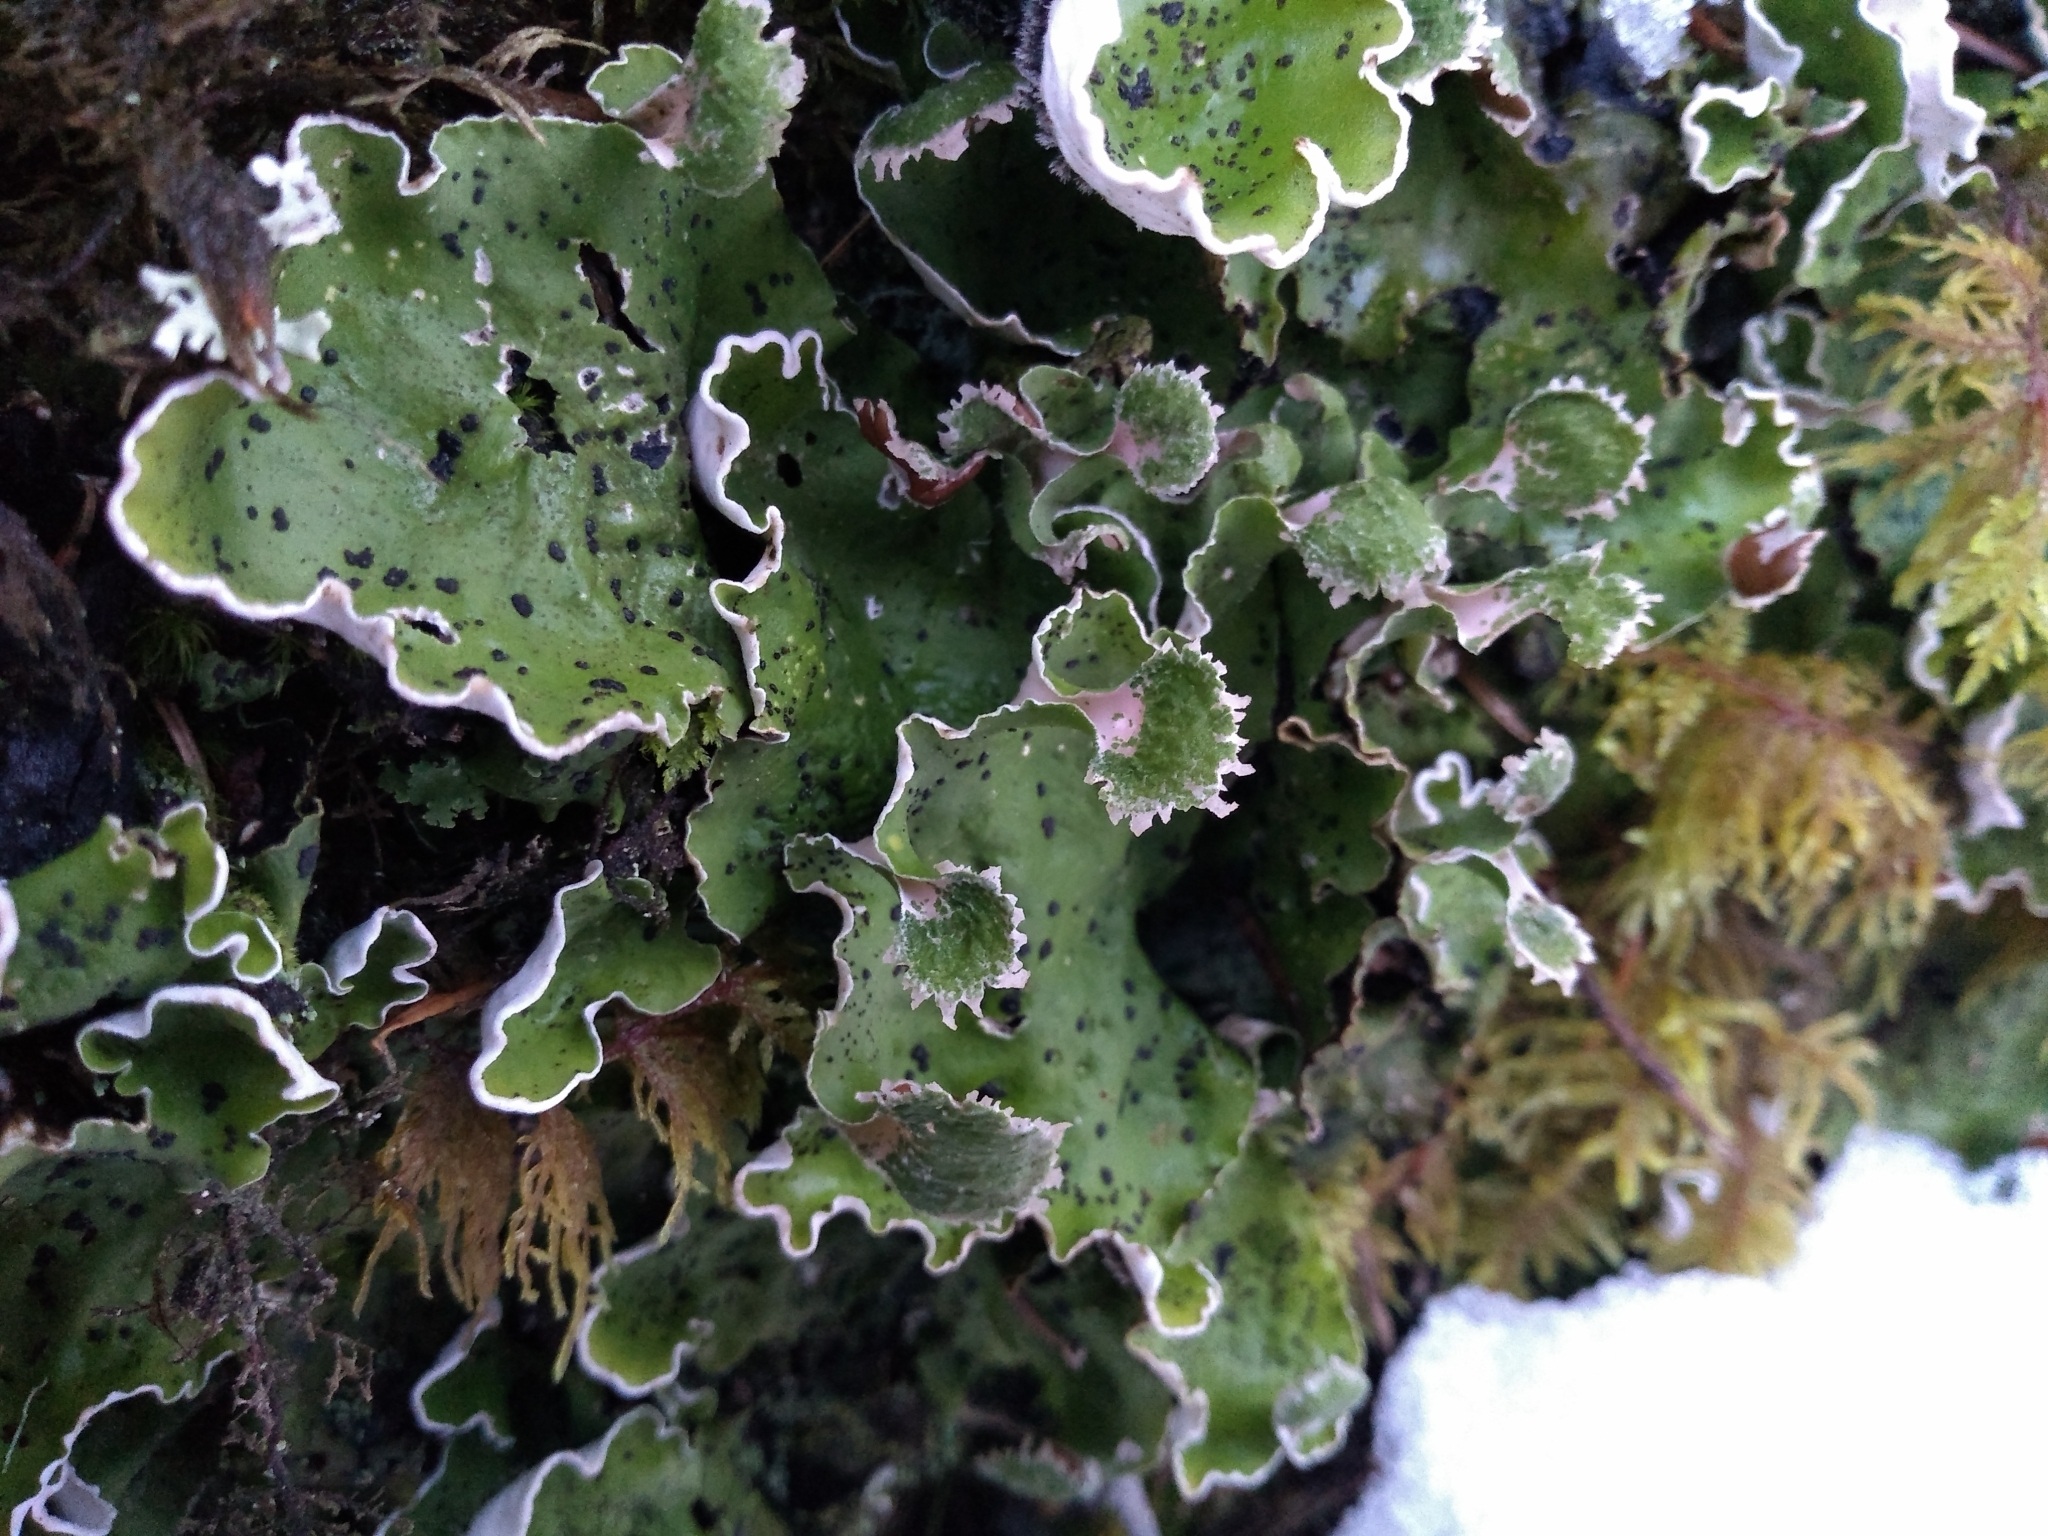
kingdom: Fungi
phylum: Ascomycota
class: Lecanoromycetes
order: Peltigerales
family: Peltigeraceae
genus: Peltigera
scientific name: Peltigera aphthosa
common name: Common freckle pelt lichen
